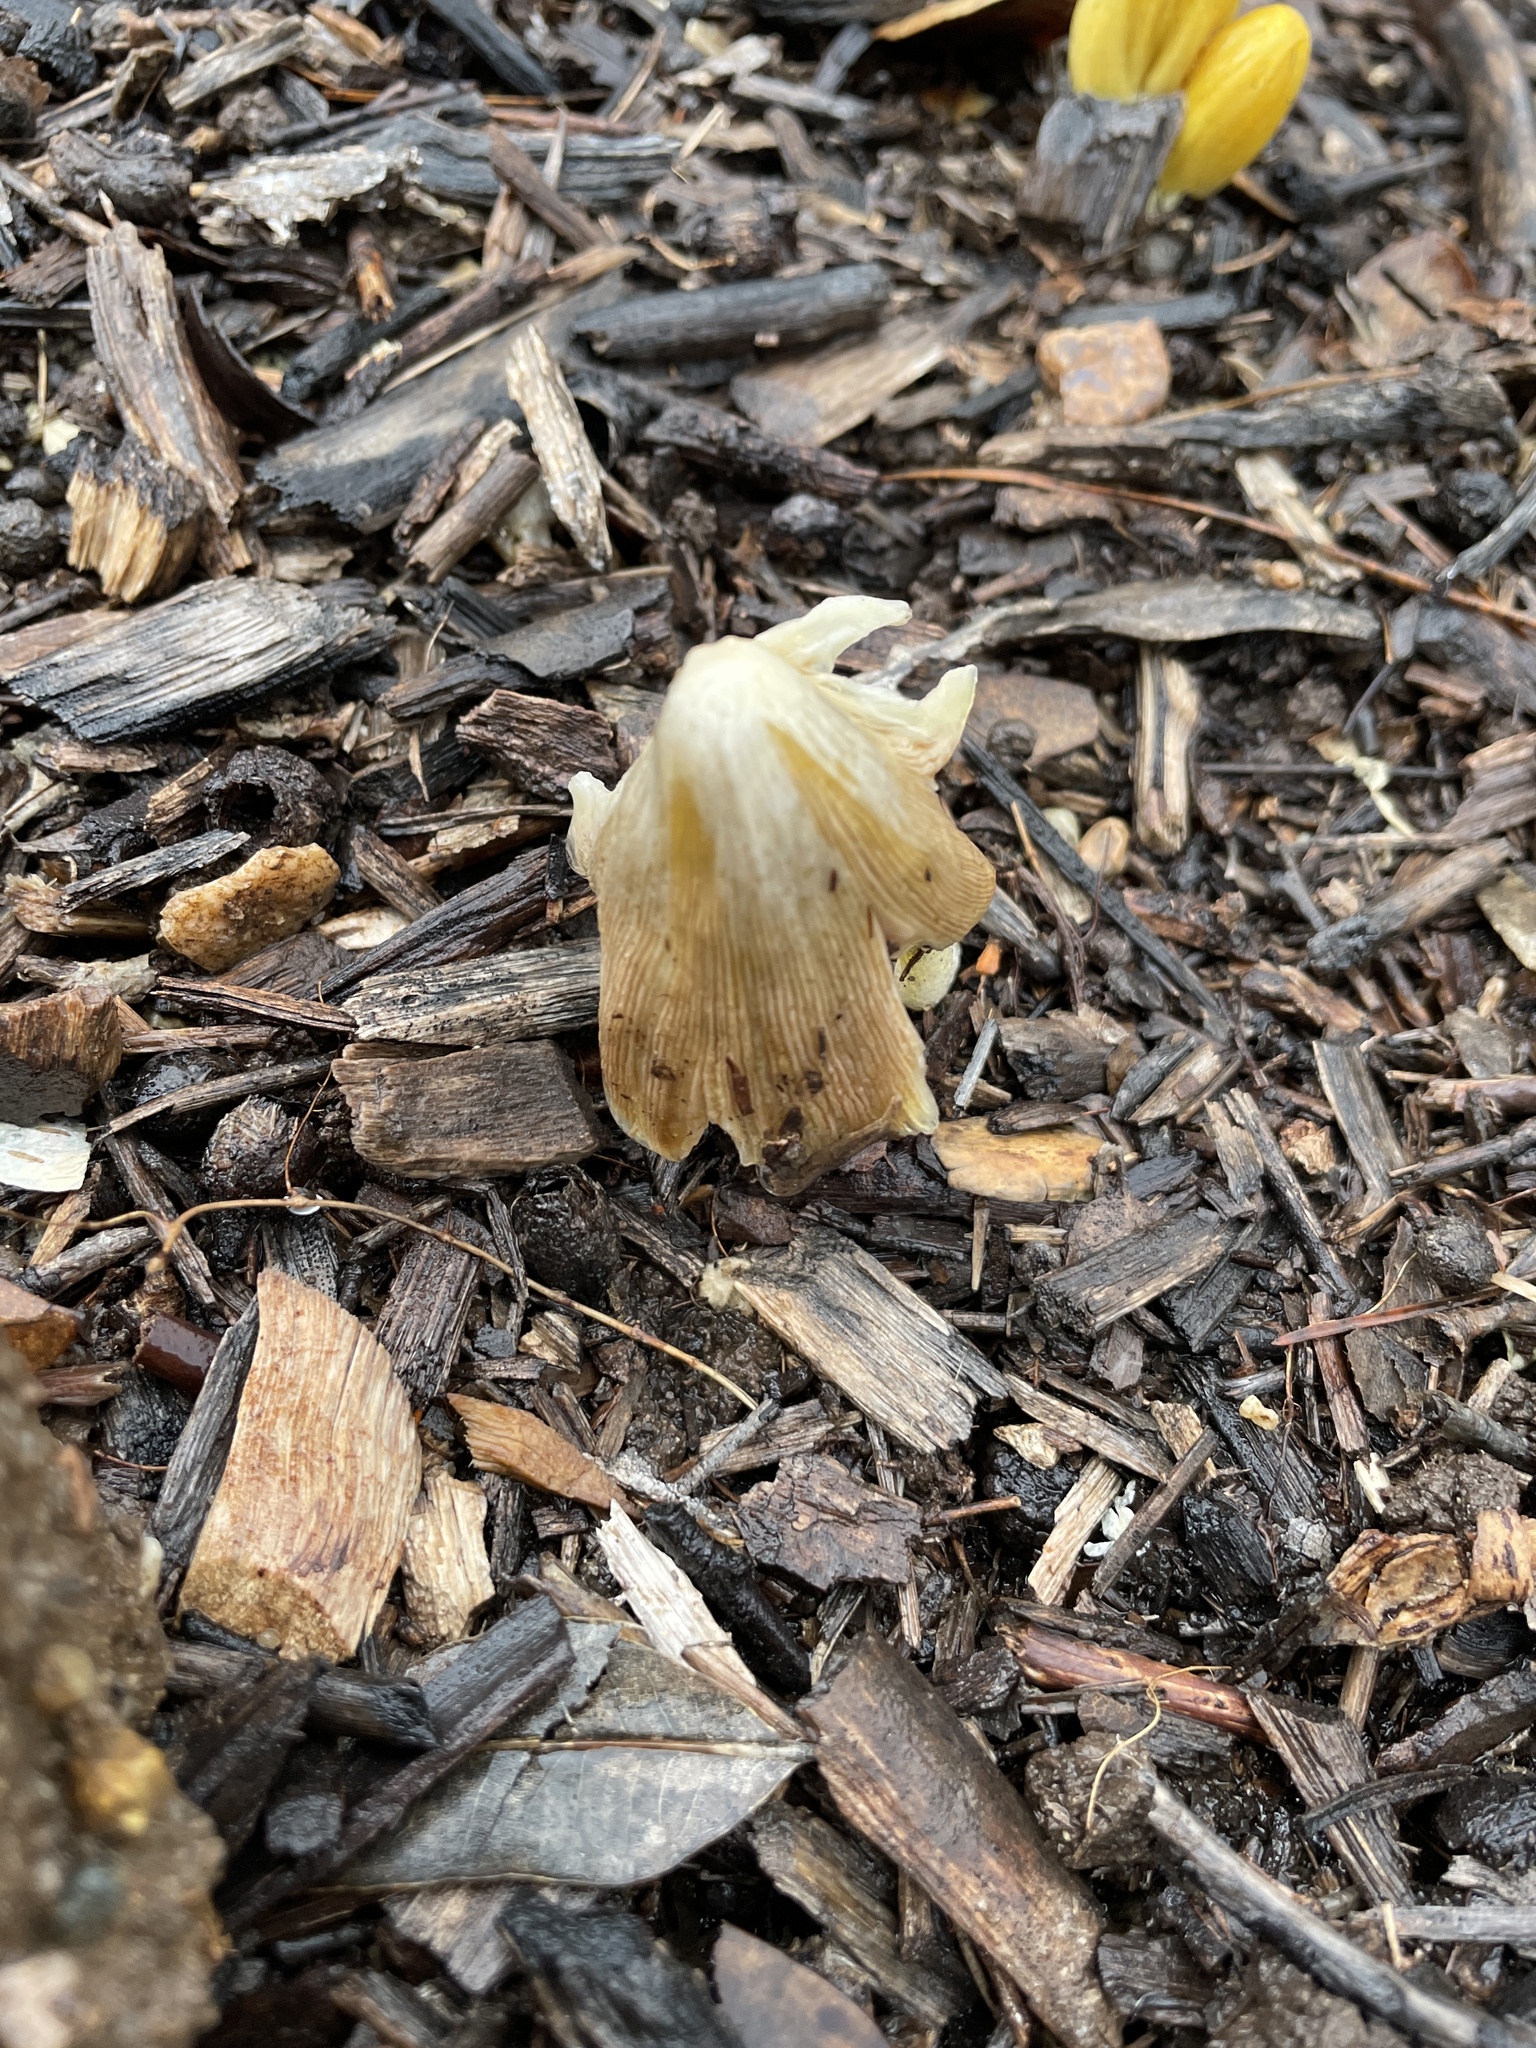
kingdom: Fungi
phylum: Basidiomycota
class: Agaricomycetes
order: Agaricales
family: Bolbitiaceae
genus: Bolbitius
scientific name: Bolbitius titubans
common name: Yellow fieldcap
